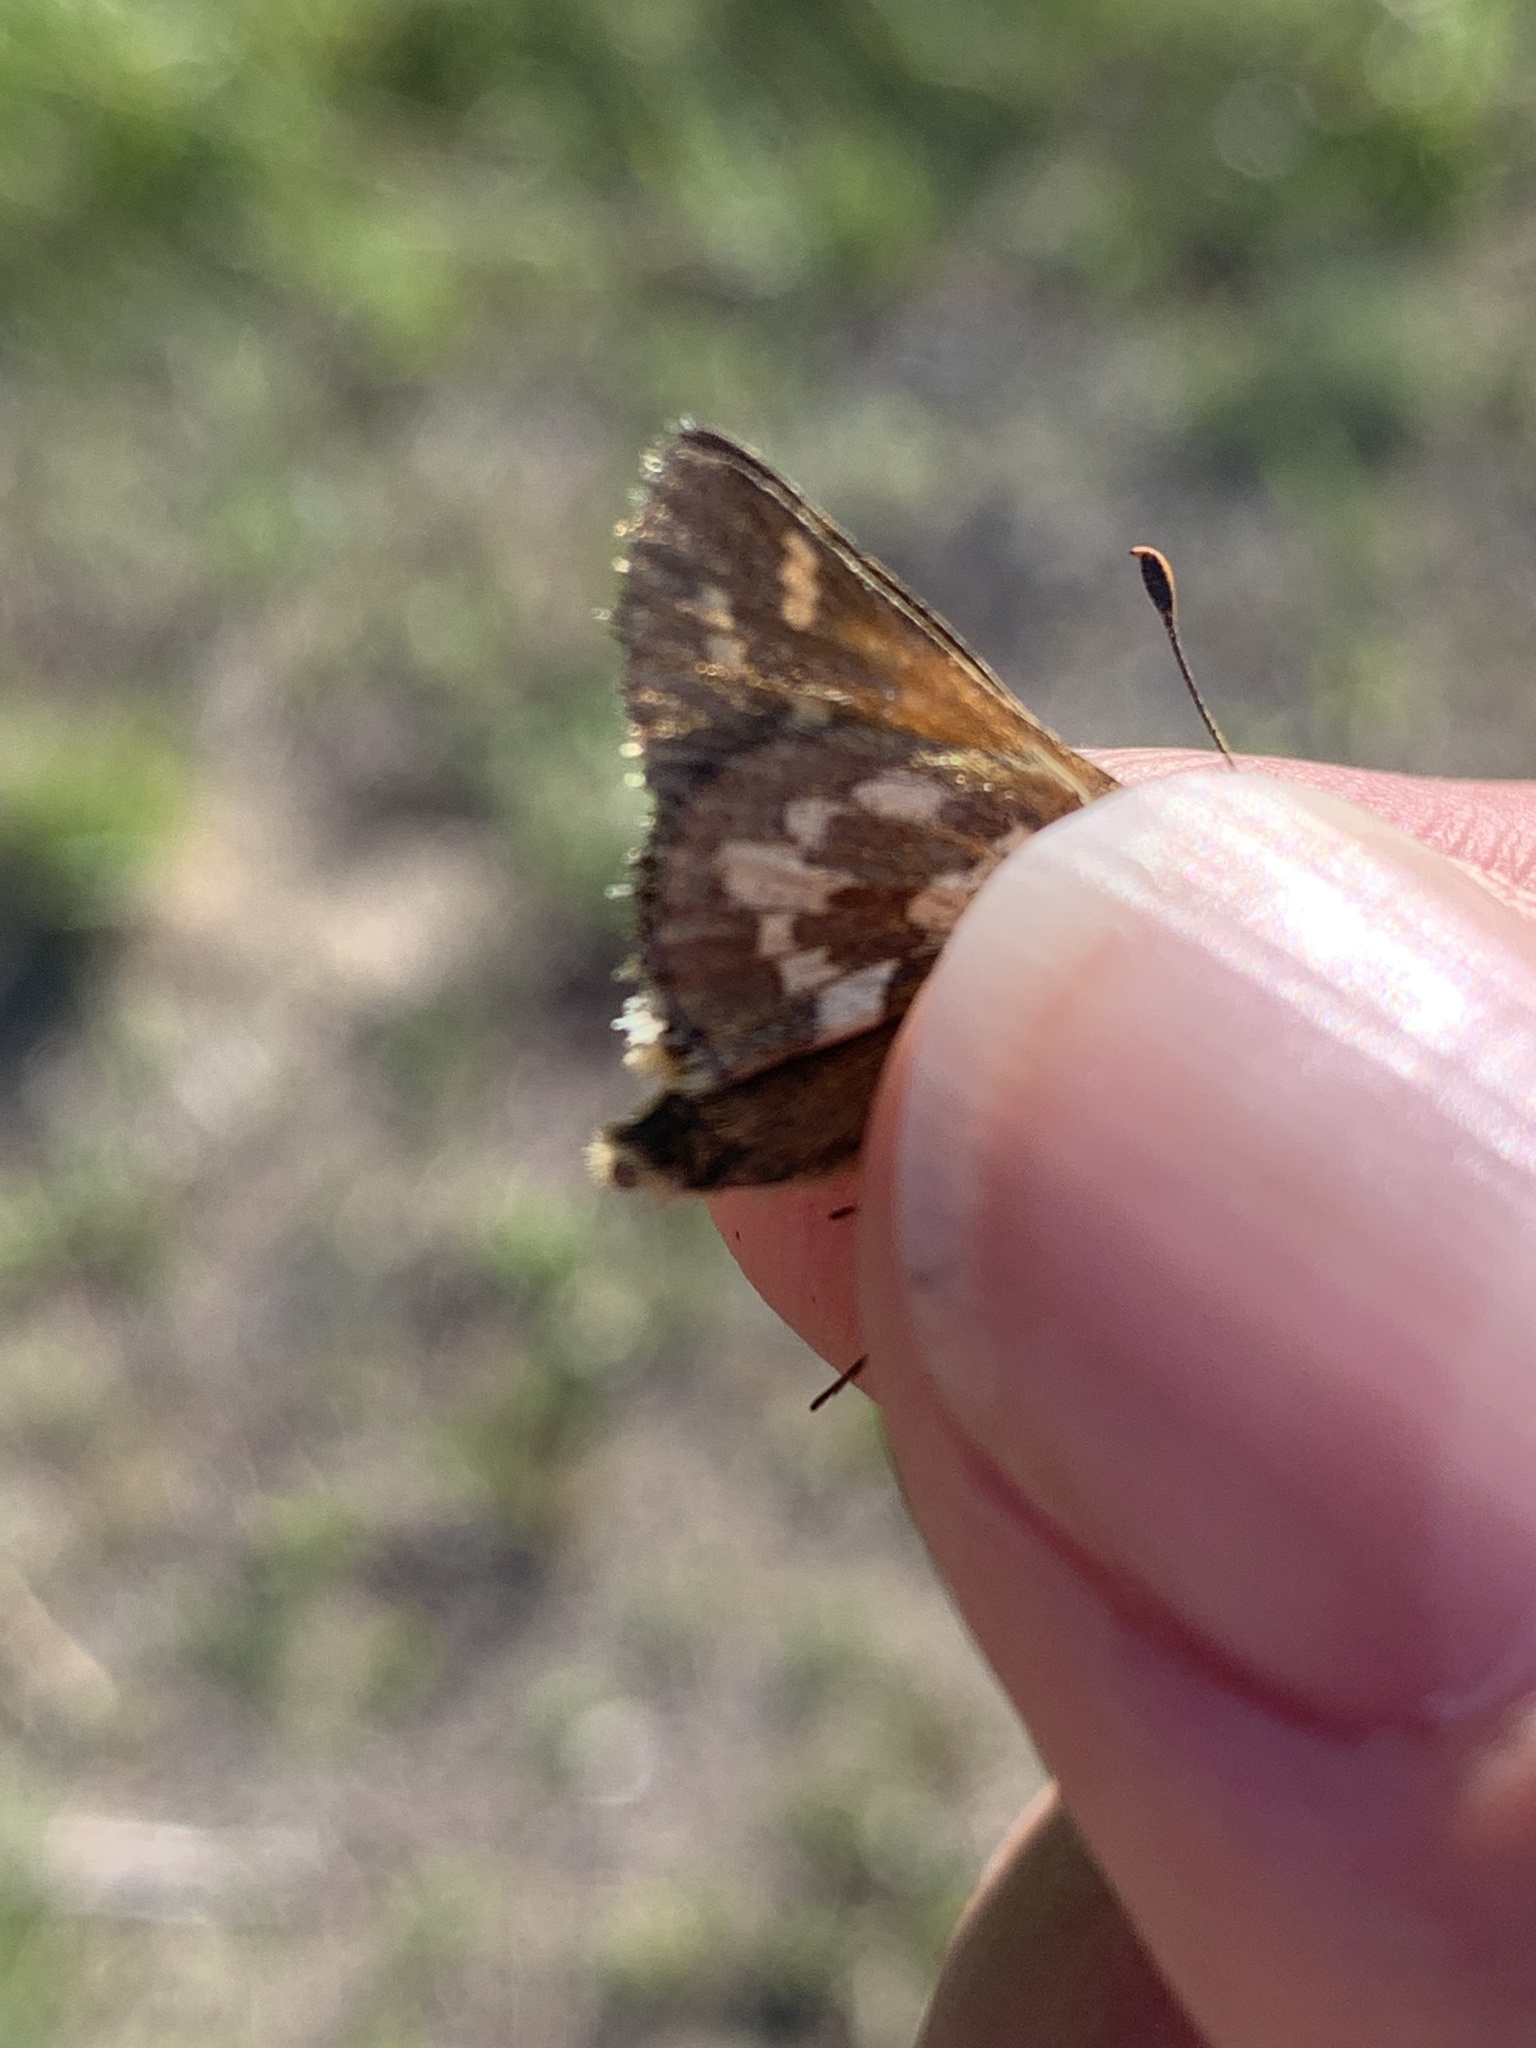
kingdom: Animalia
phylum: Arthropoda
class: Insecta
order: Lepidoptera
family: Hesperiidae
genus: Polites
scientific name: Polites sabuleti
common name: Sandhill skipper
